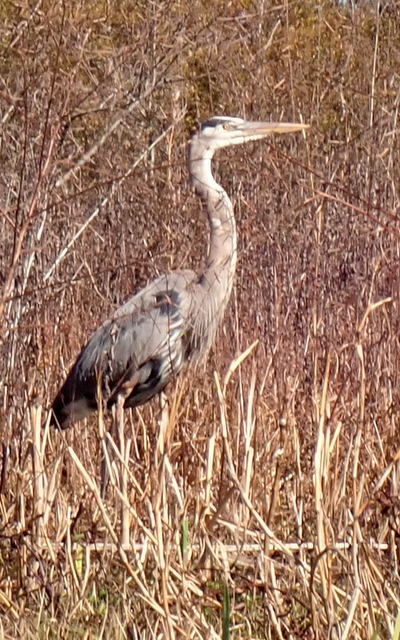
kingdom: Animalia
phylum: Chordata
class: Aves
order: Pelecaniformes
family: Ardeidae
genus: Ardea
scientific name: Ardea herodias
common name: Great blue heron
